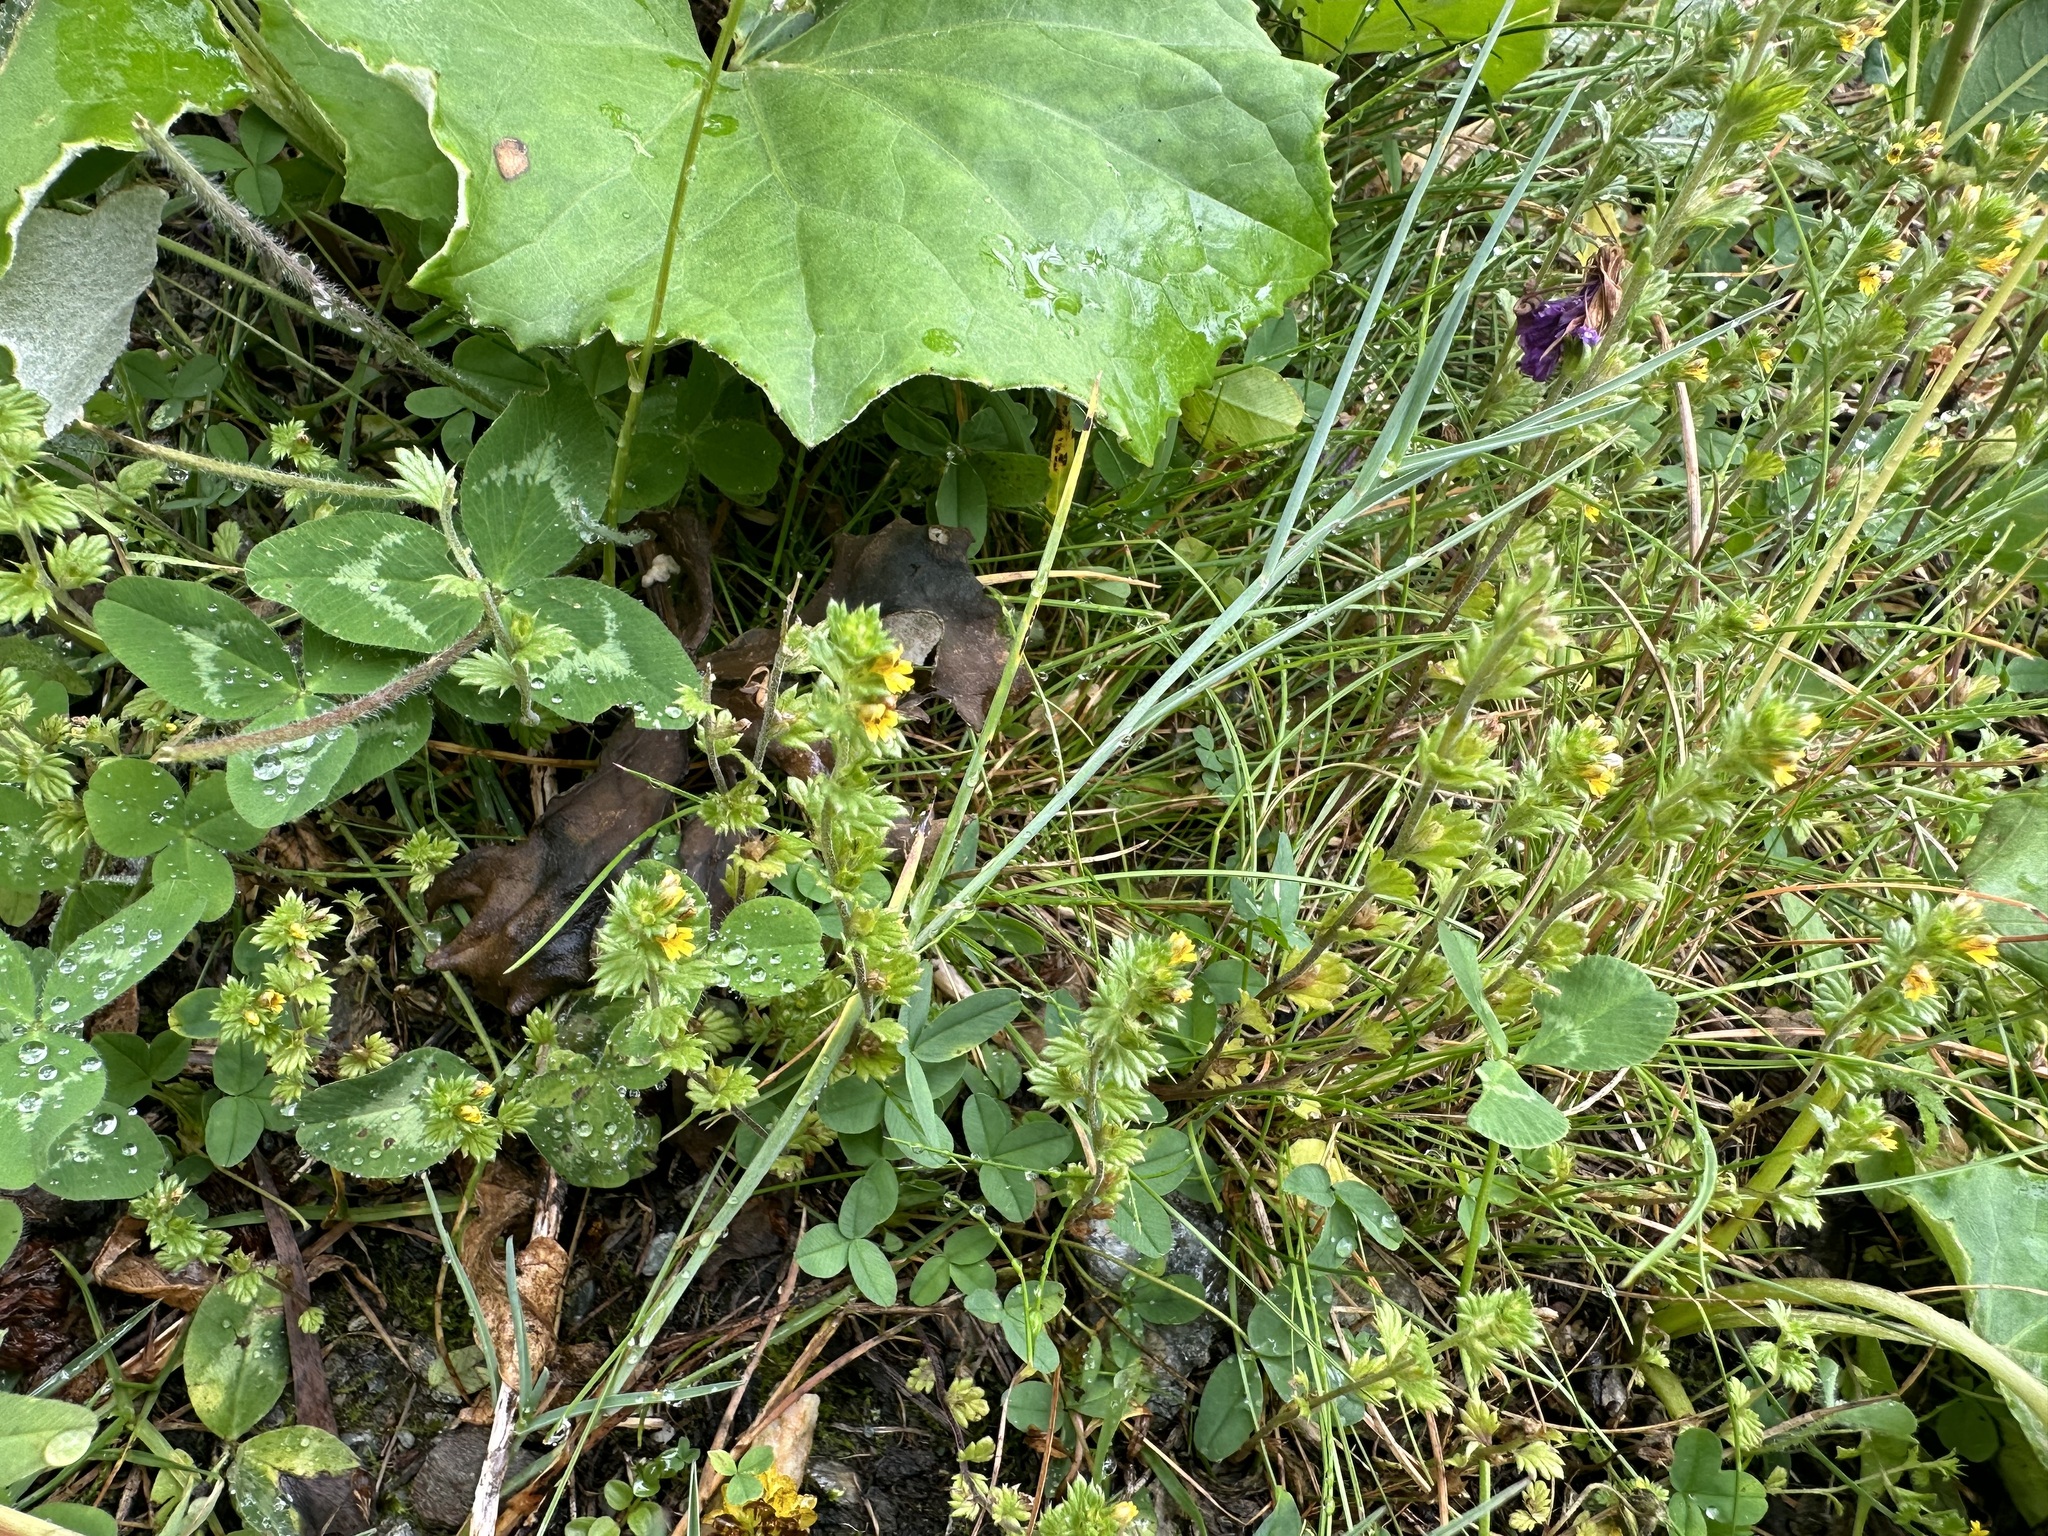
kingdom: Plantae
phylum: Tracheophyta
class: Magnoliopsida
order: Lamiales
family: Orobanchaceae
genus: Euphrasia
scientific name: Euphrasia minima
